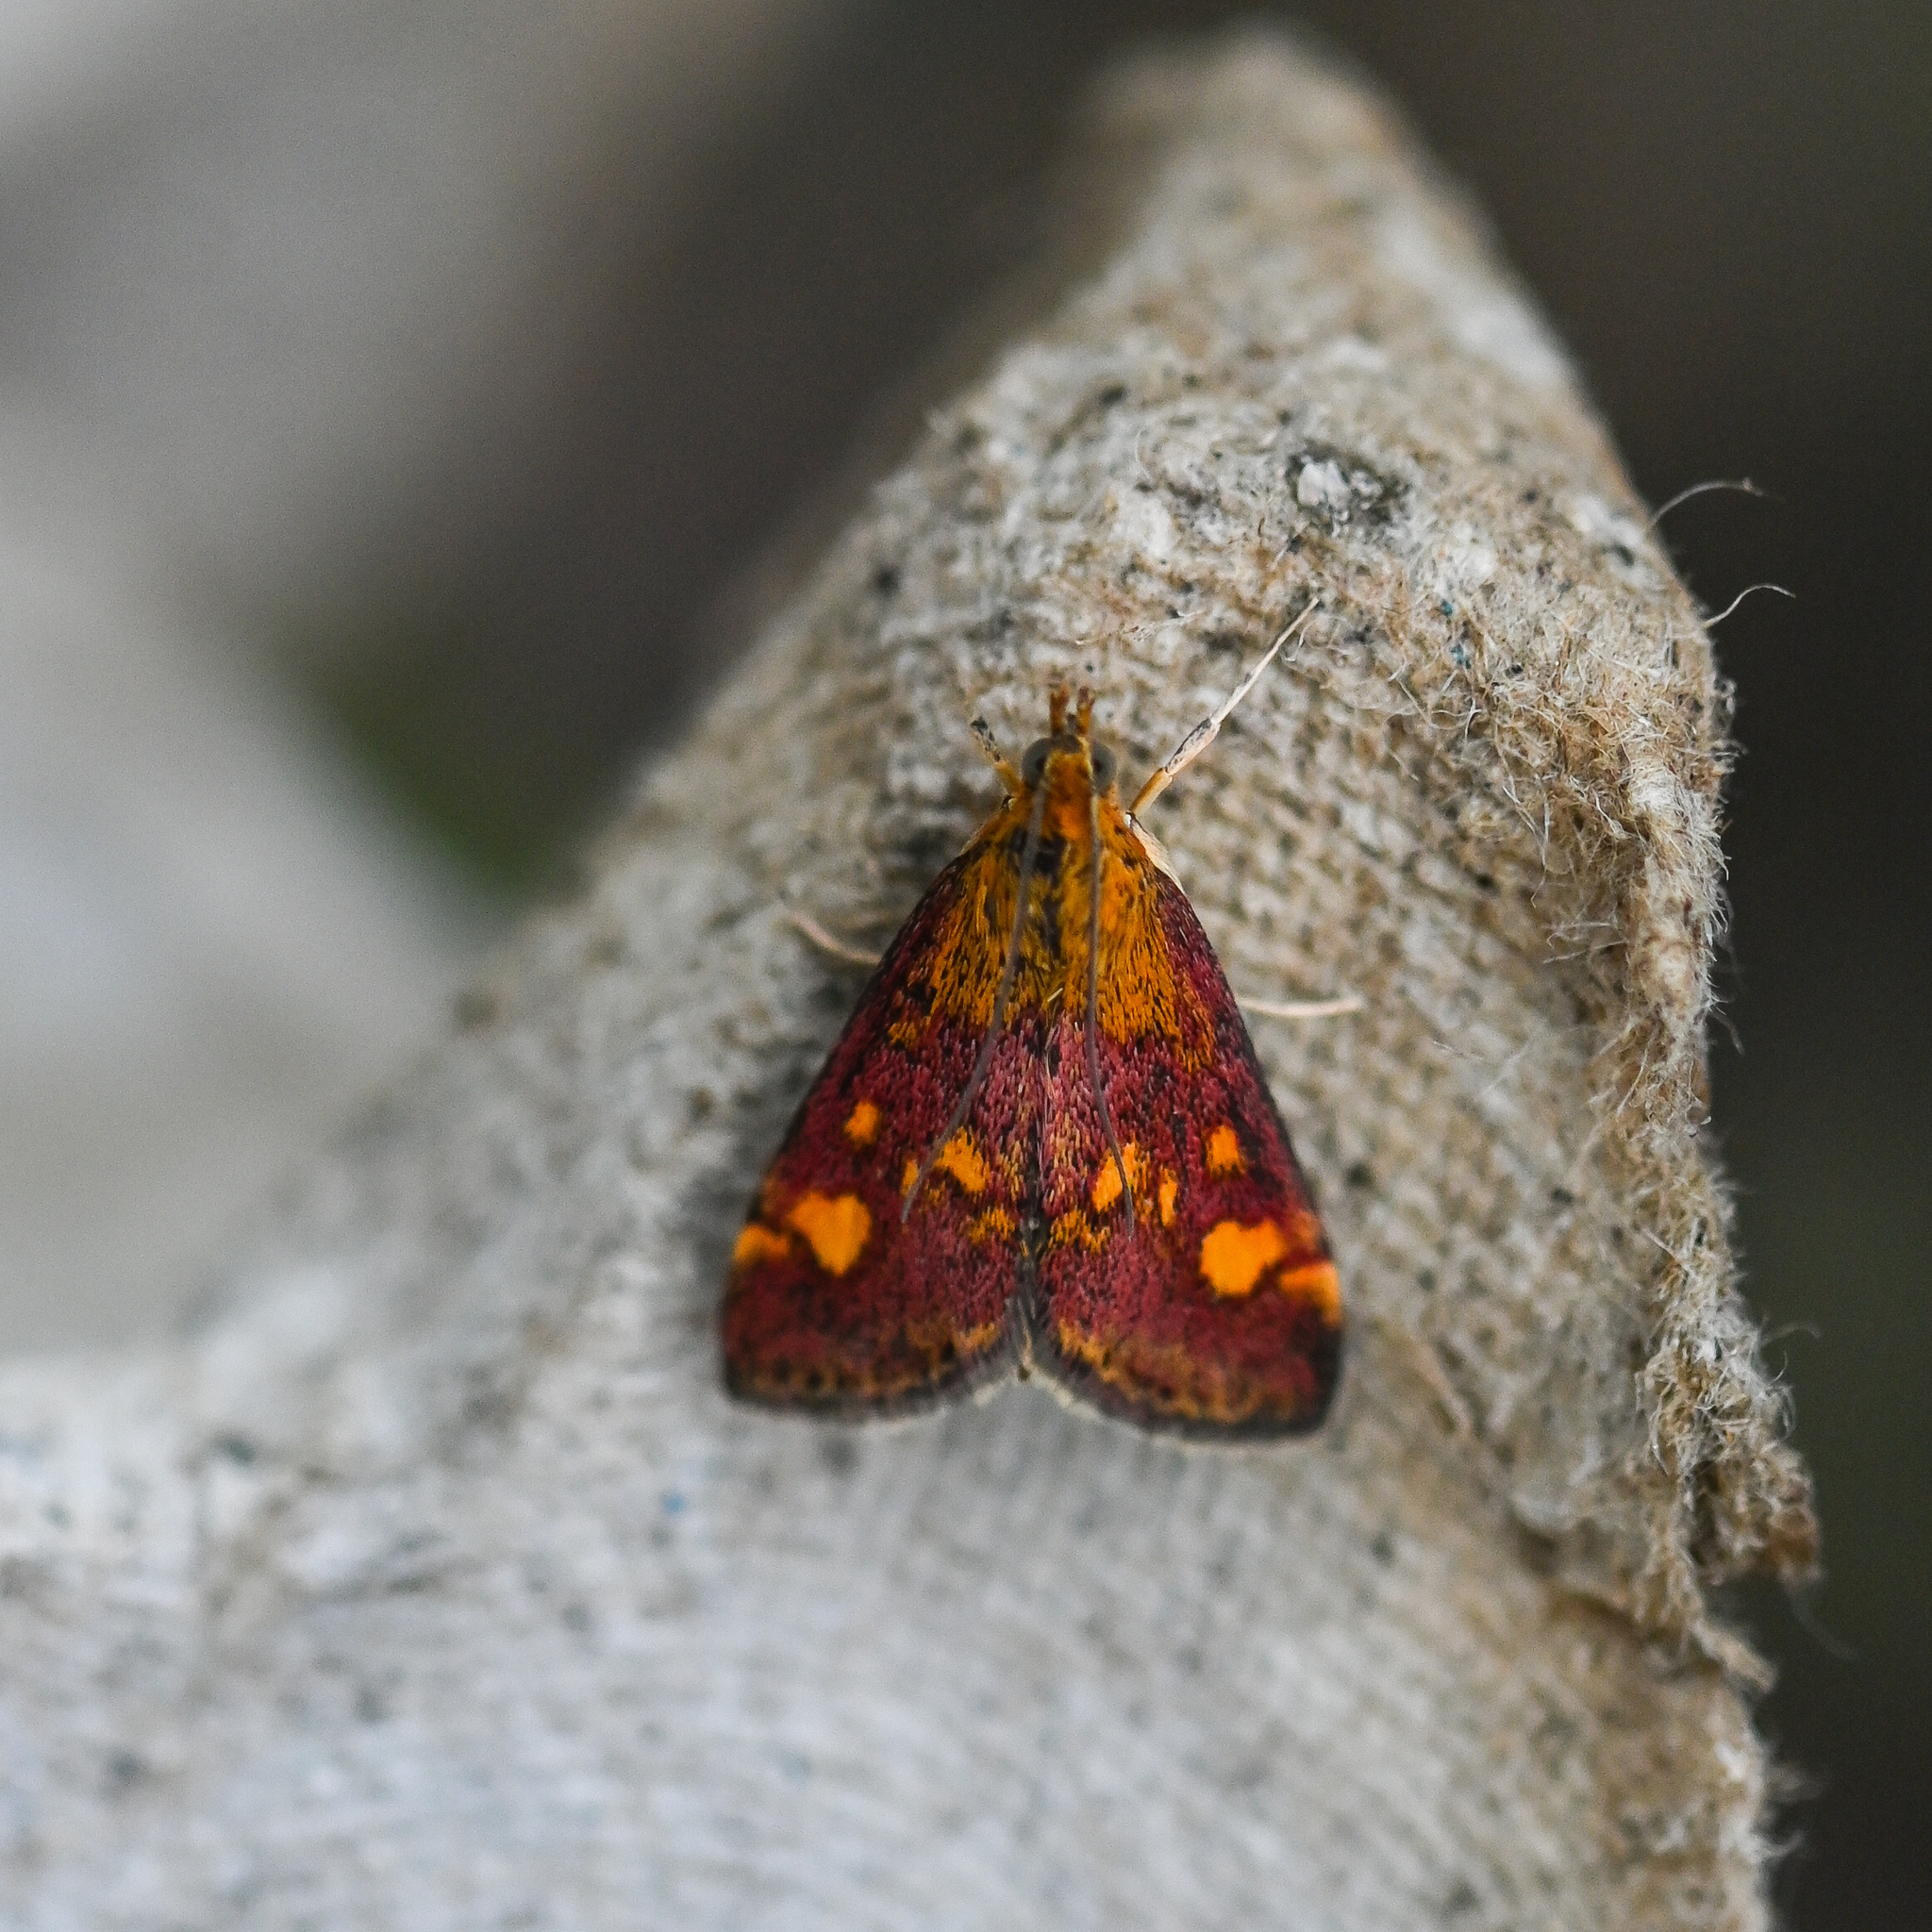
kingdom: Animalia
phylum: Arthropoda
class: Insecta
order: Lepidoptera
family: Crambidae
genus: Pyrausta
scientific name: Pyrausta aurata
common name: Small purple & gold
